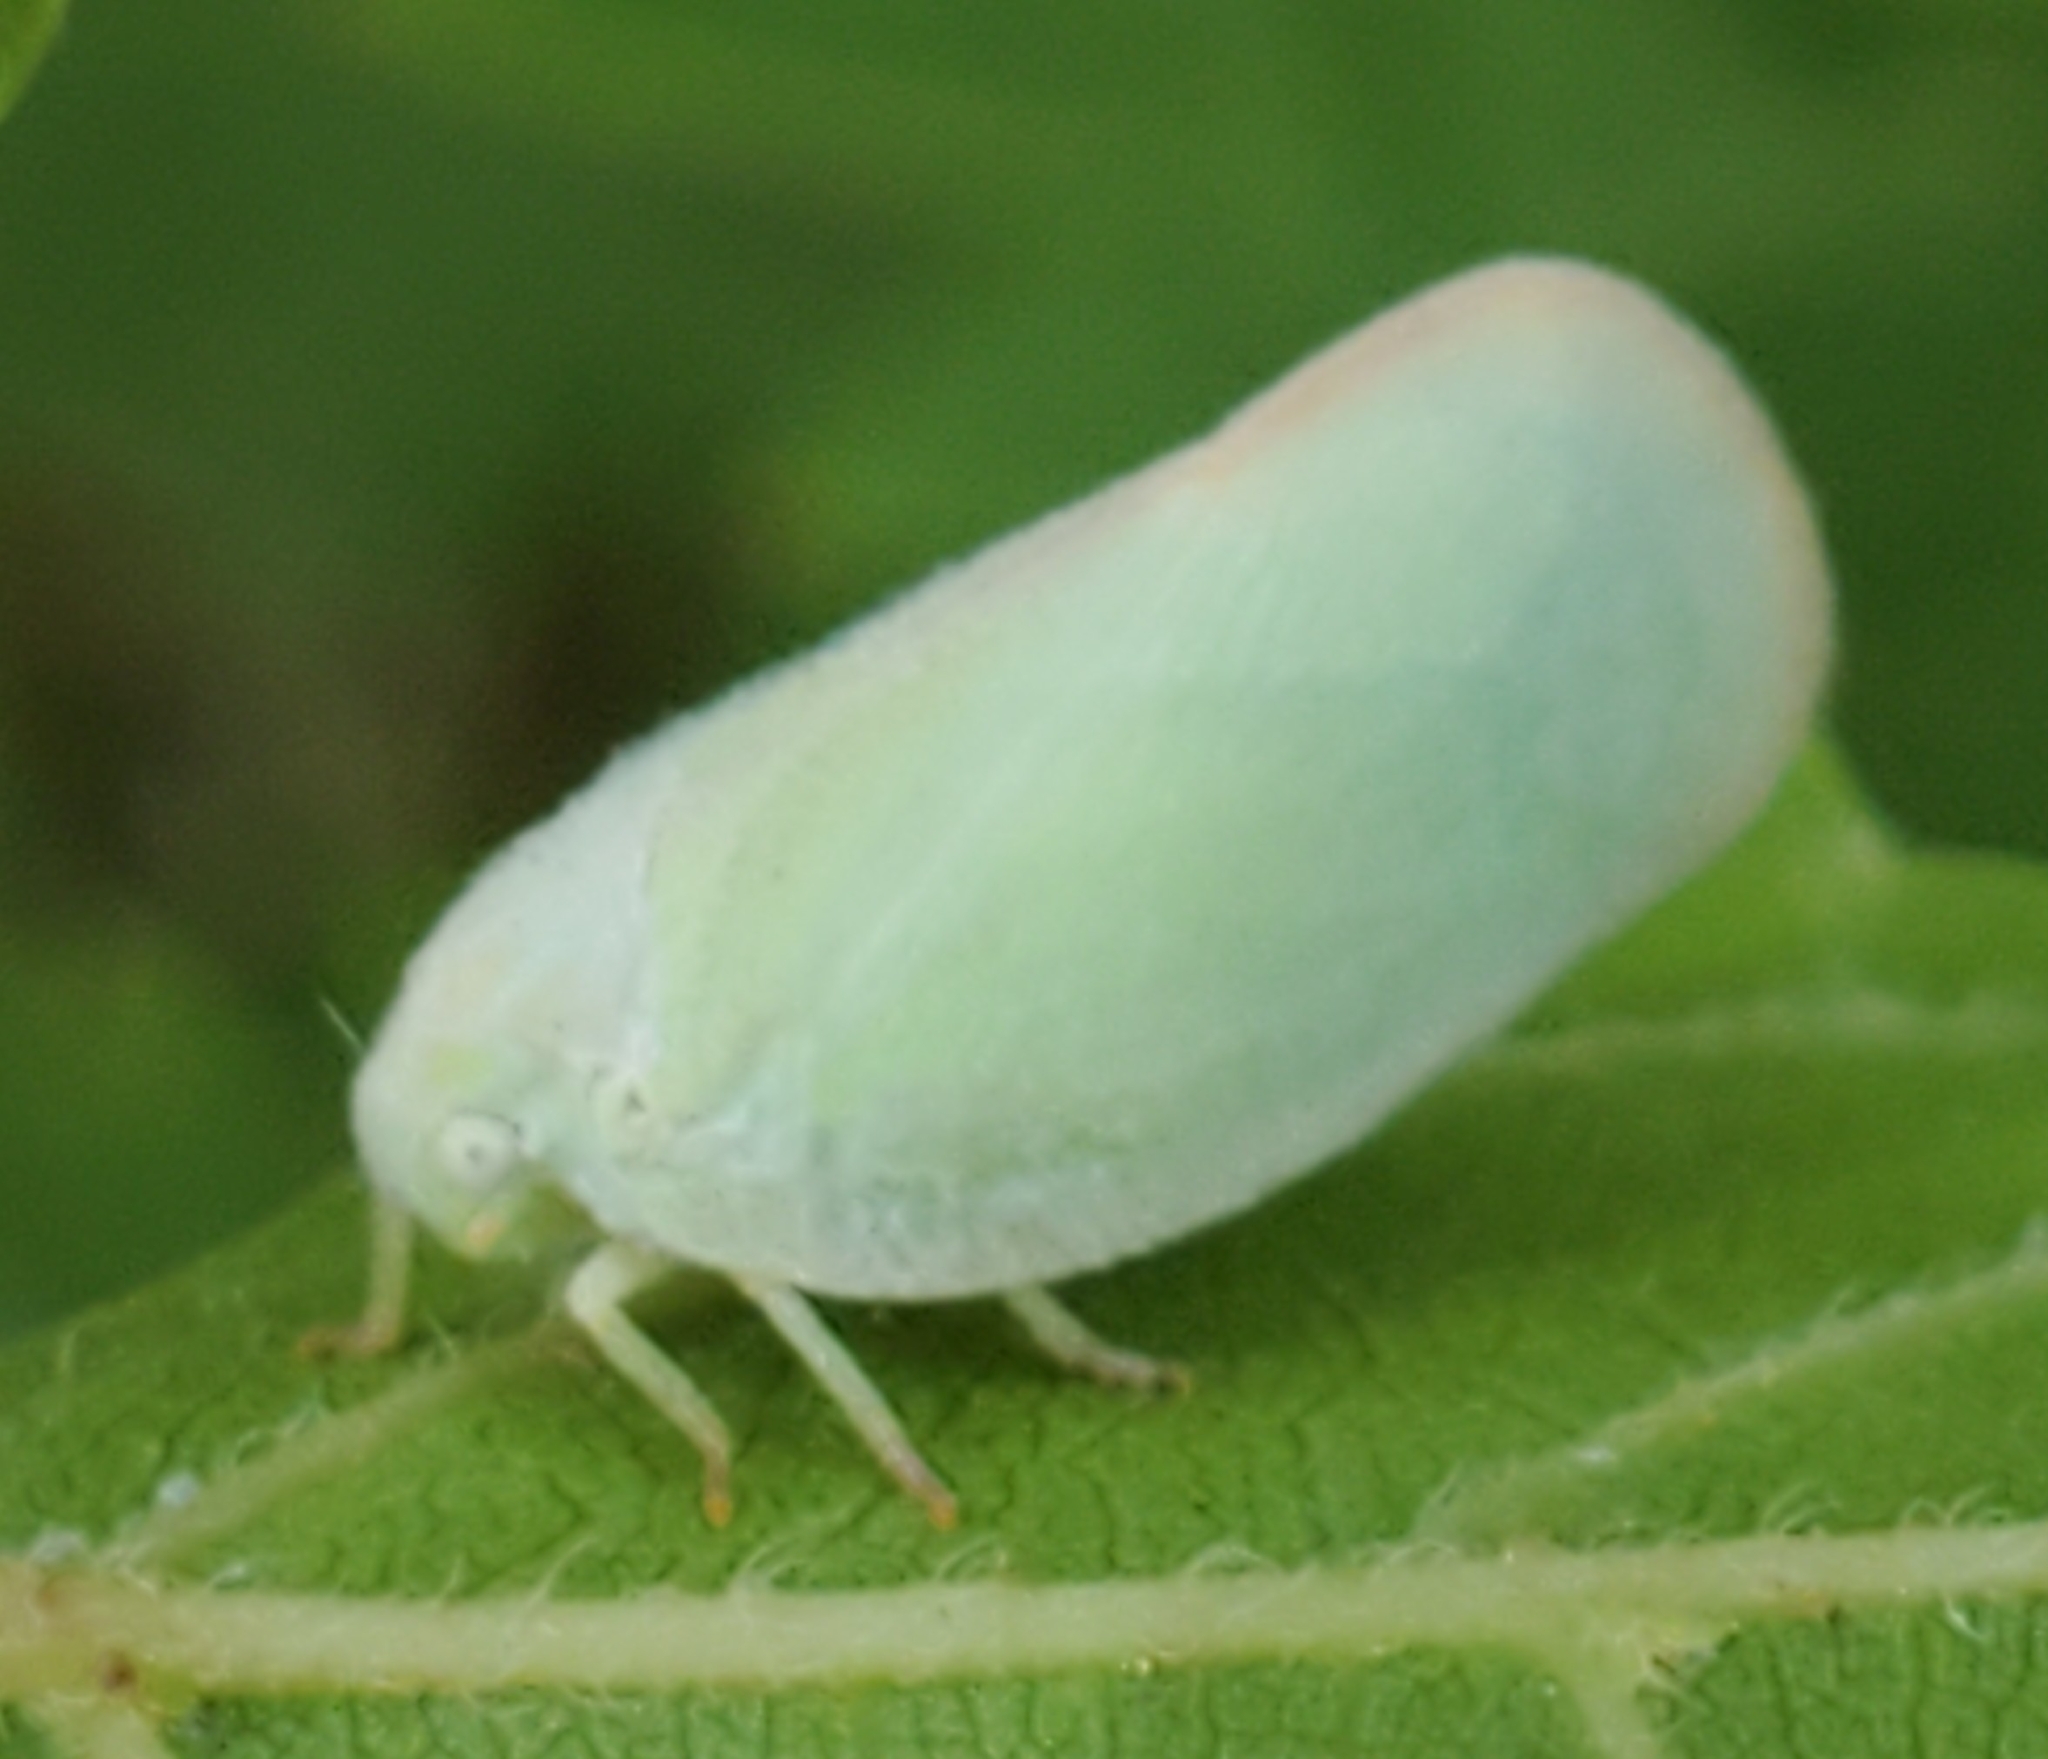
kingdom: Animalia
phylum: Arthropoda
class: Insecta
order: Hemiptera
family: Flatidae
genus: Ormenoides
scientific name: Ormenoides venusta
